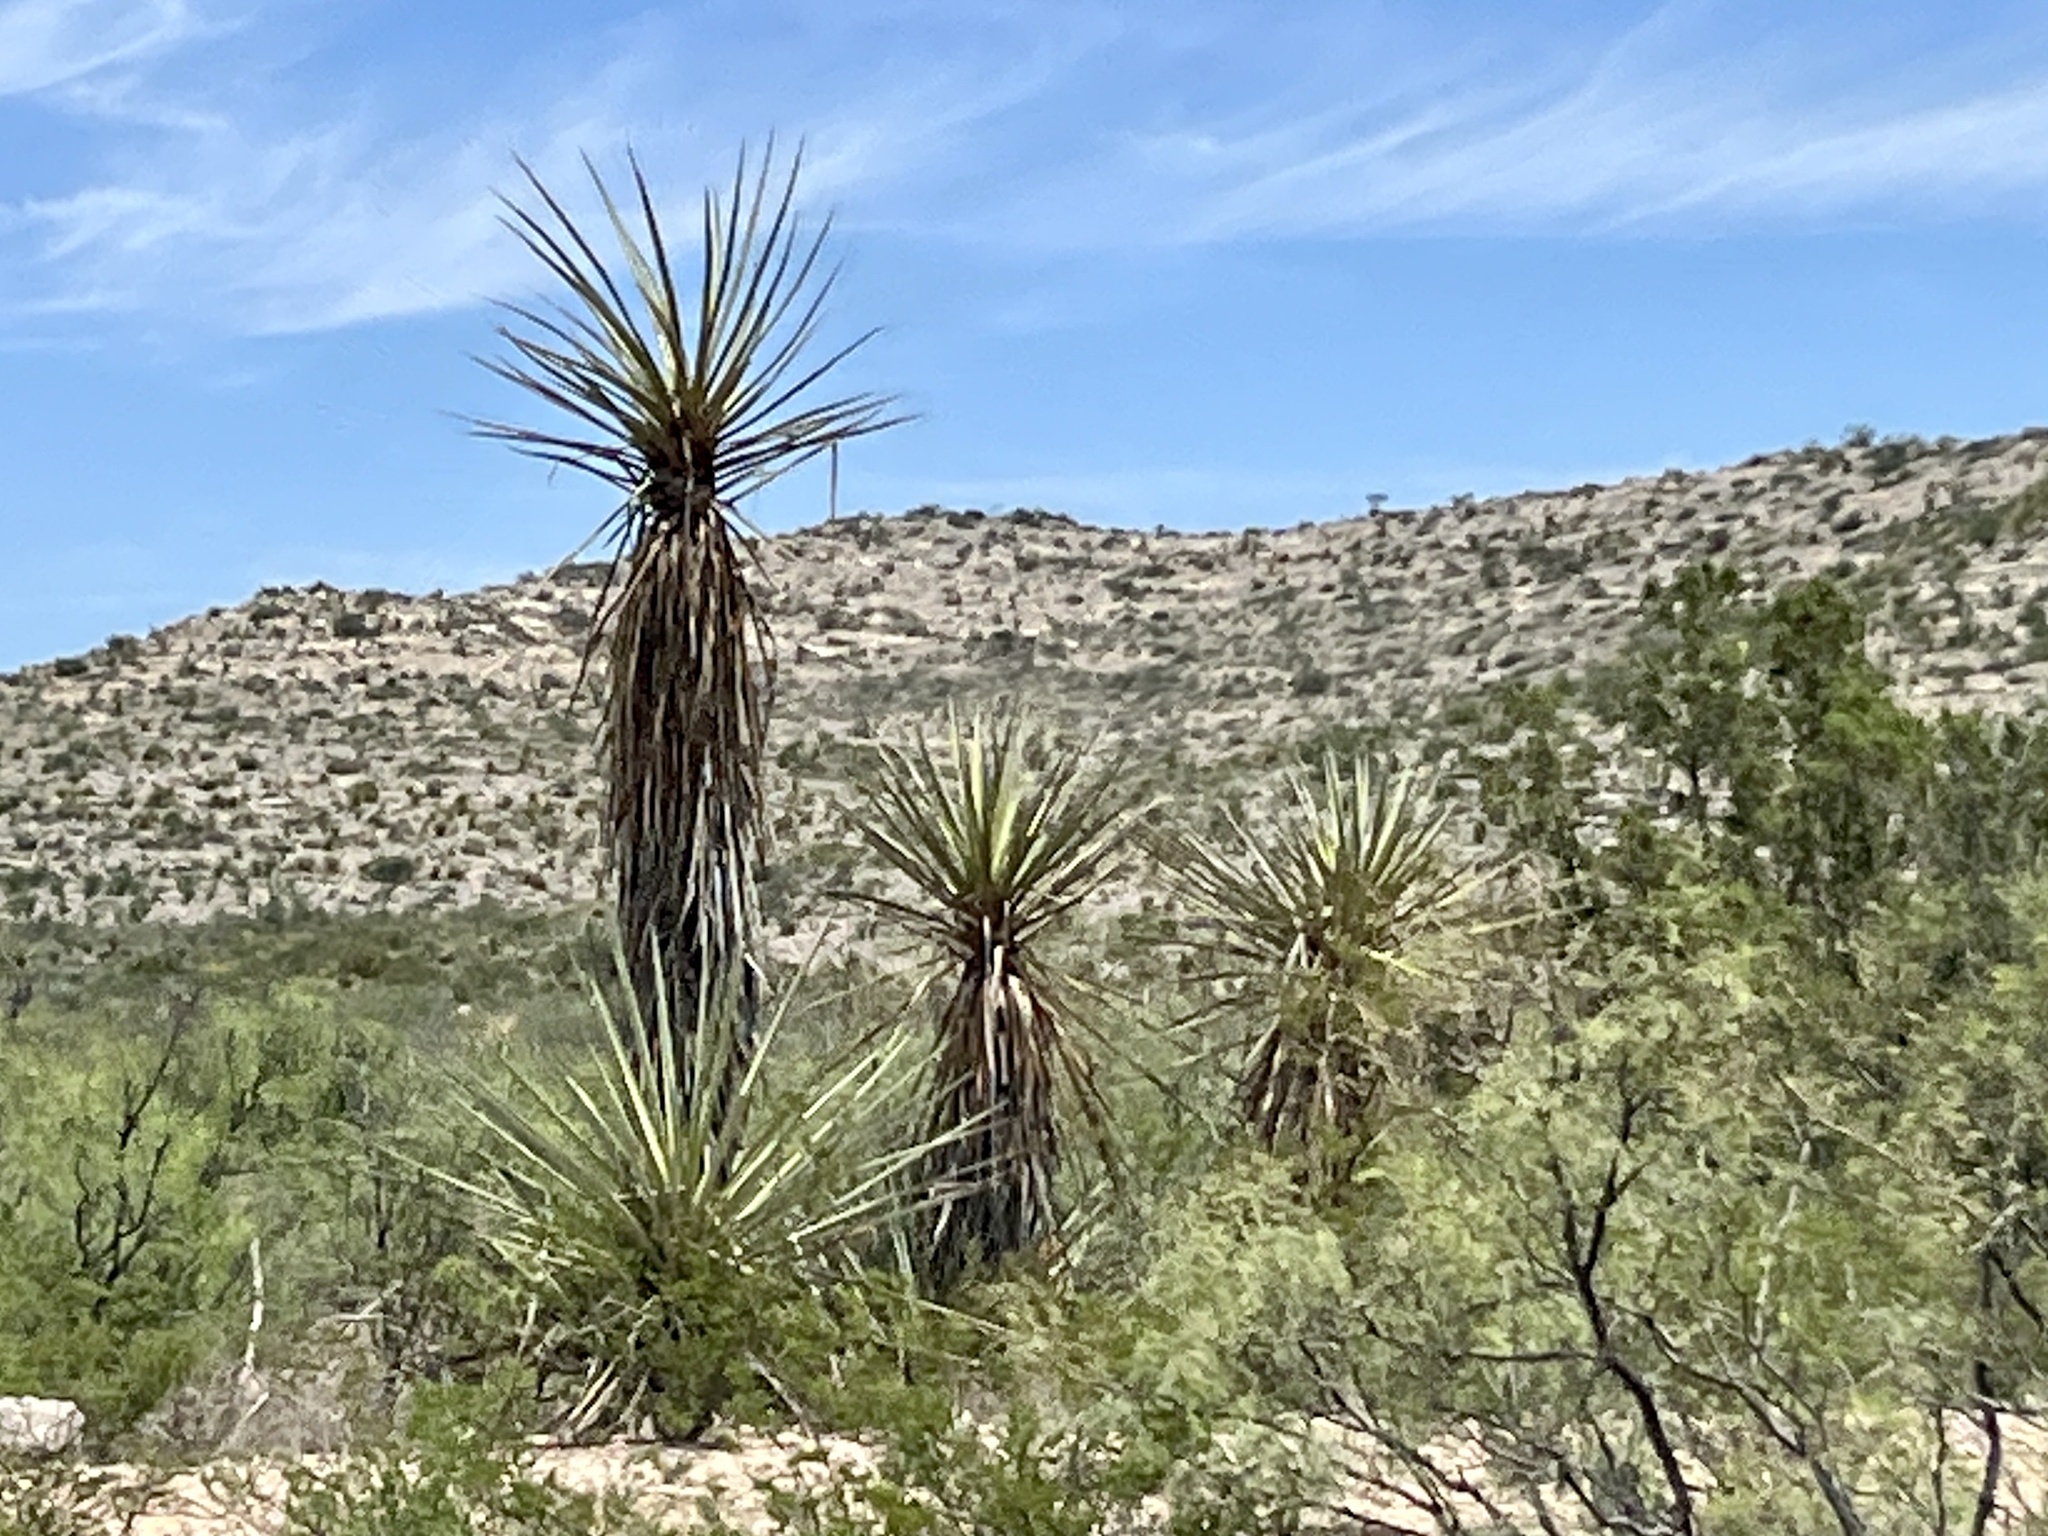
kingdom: Plantae
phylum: Tracheophyta
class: Liliopsida
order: Asparagales
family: Asparagaceae
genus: Yucca
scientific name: Yucca treculiana
